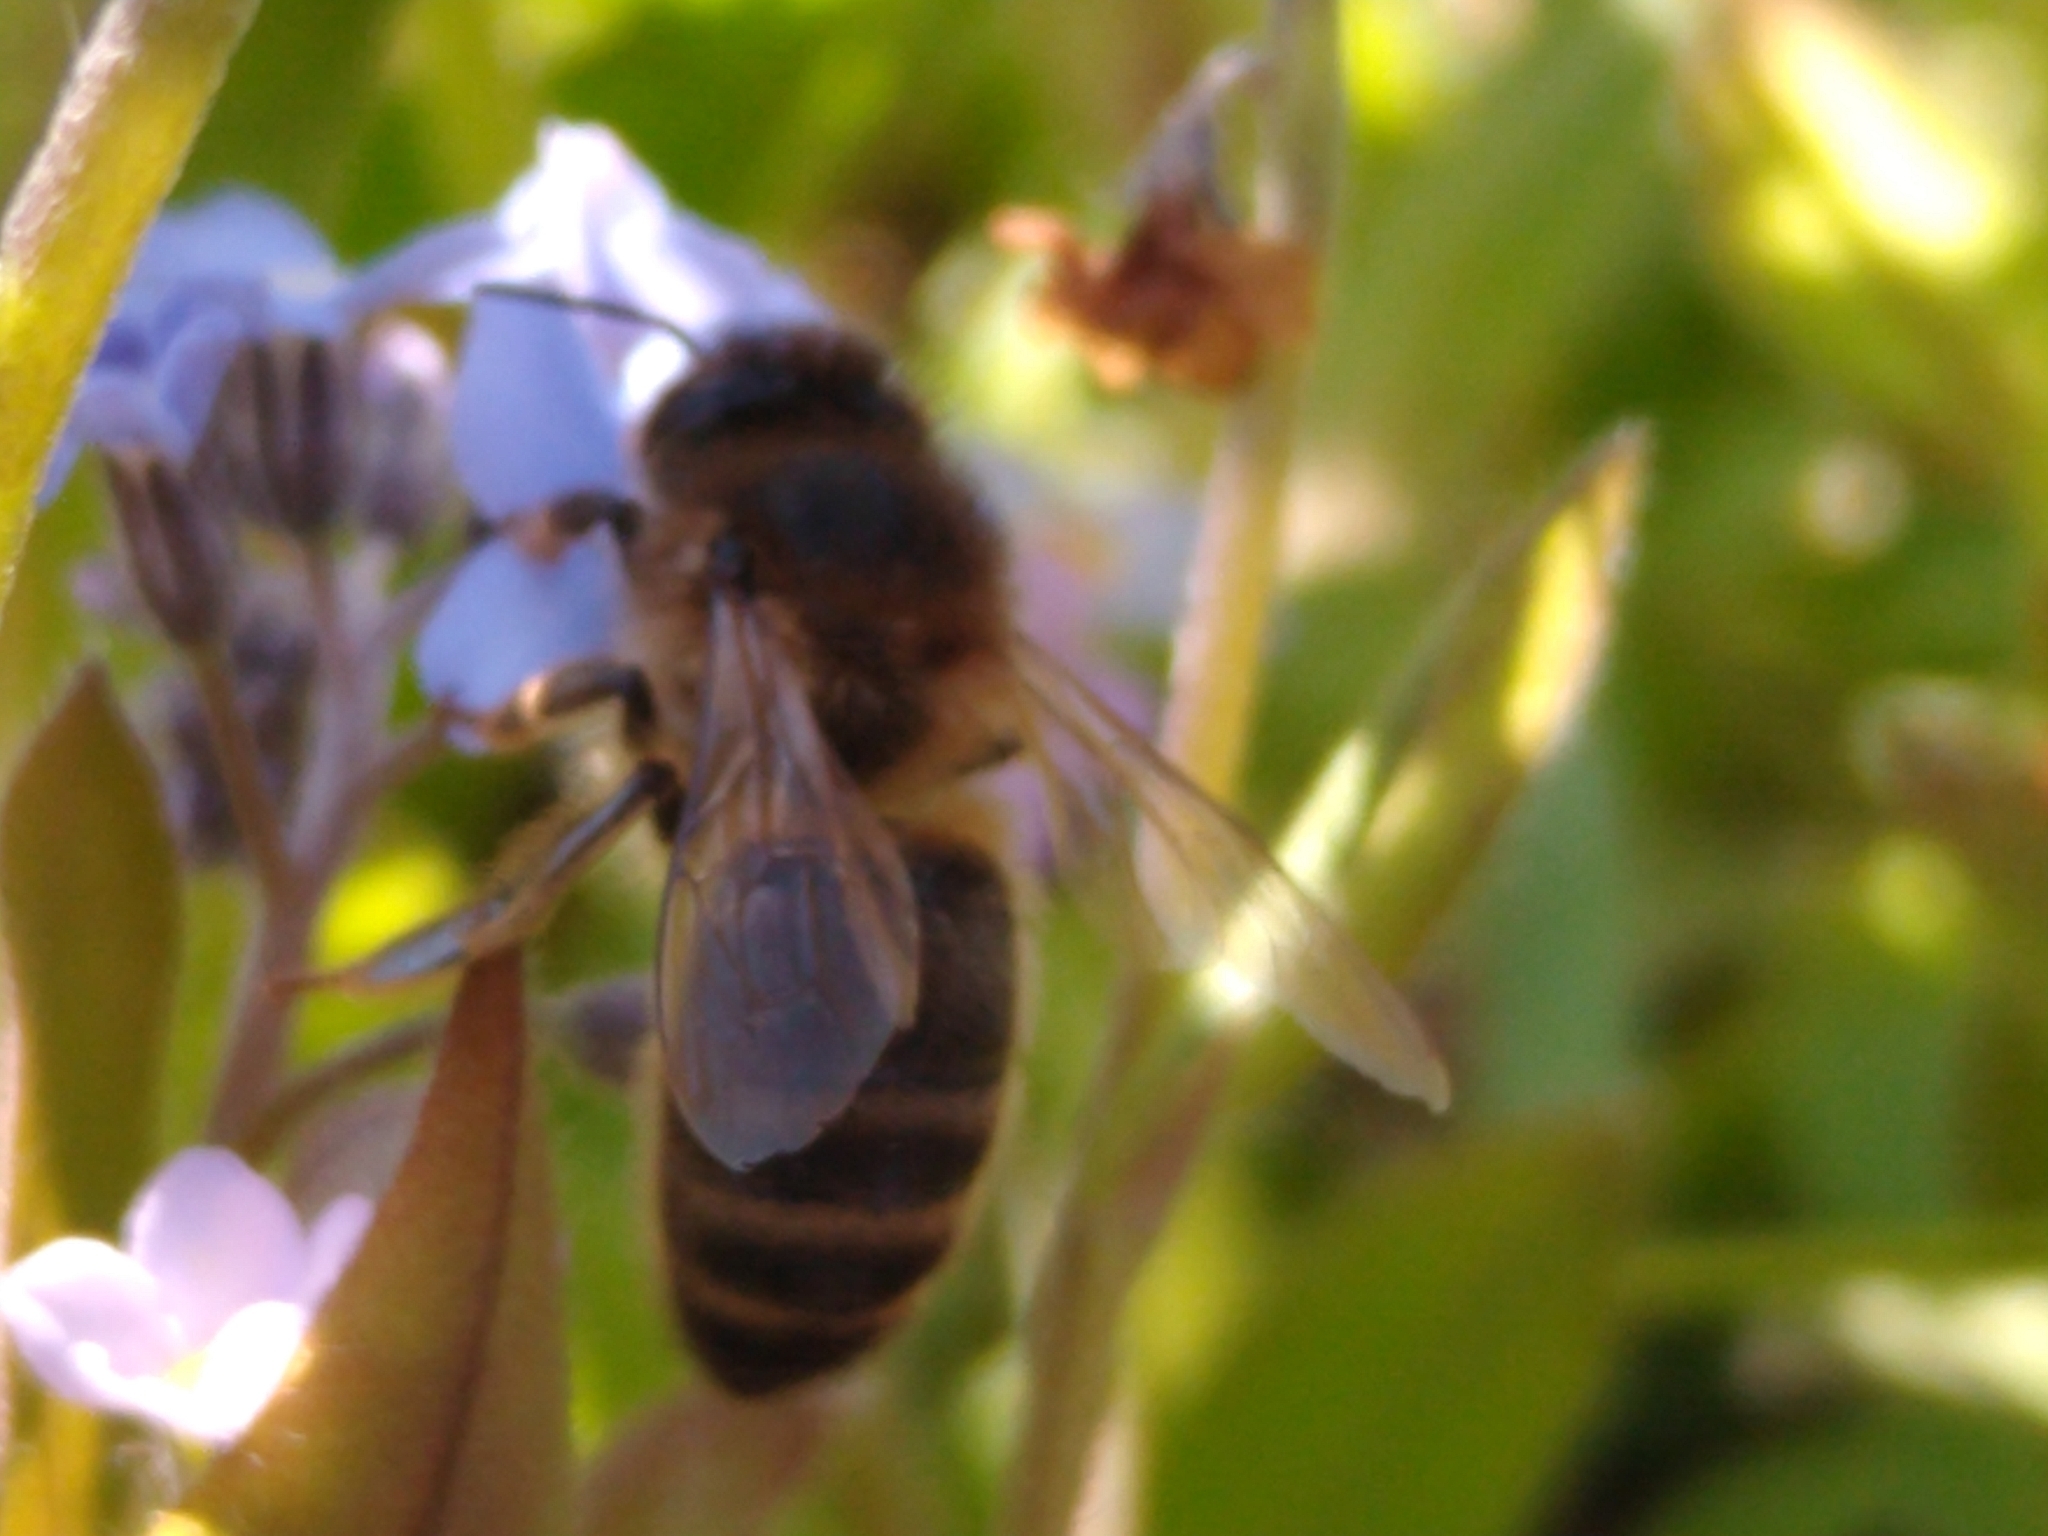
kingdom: Animalia
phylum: Arthropoda
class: Insecta
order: Hymenoptera
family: Apidae
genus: Apis
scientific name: Apis mellifera
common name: Honey bee
